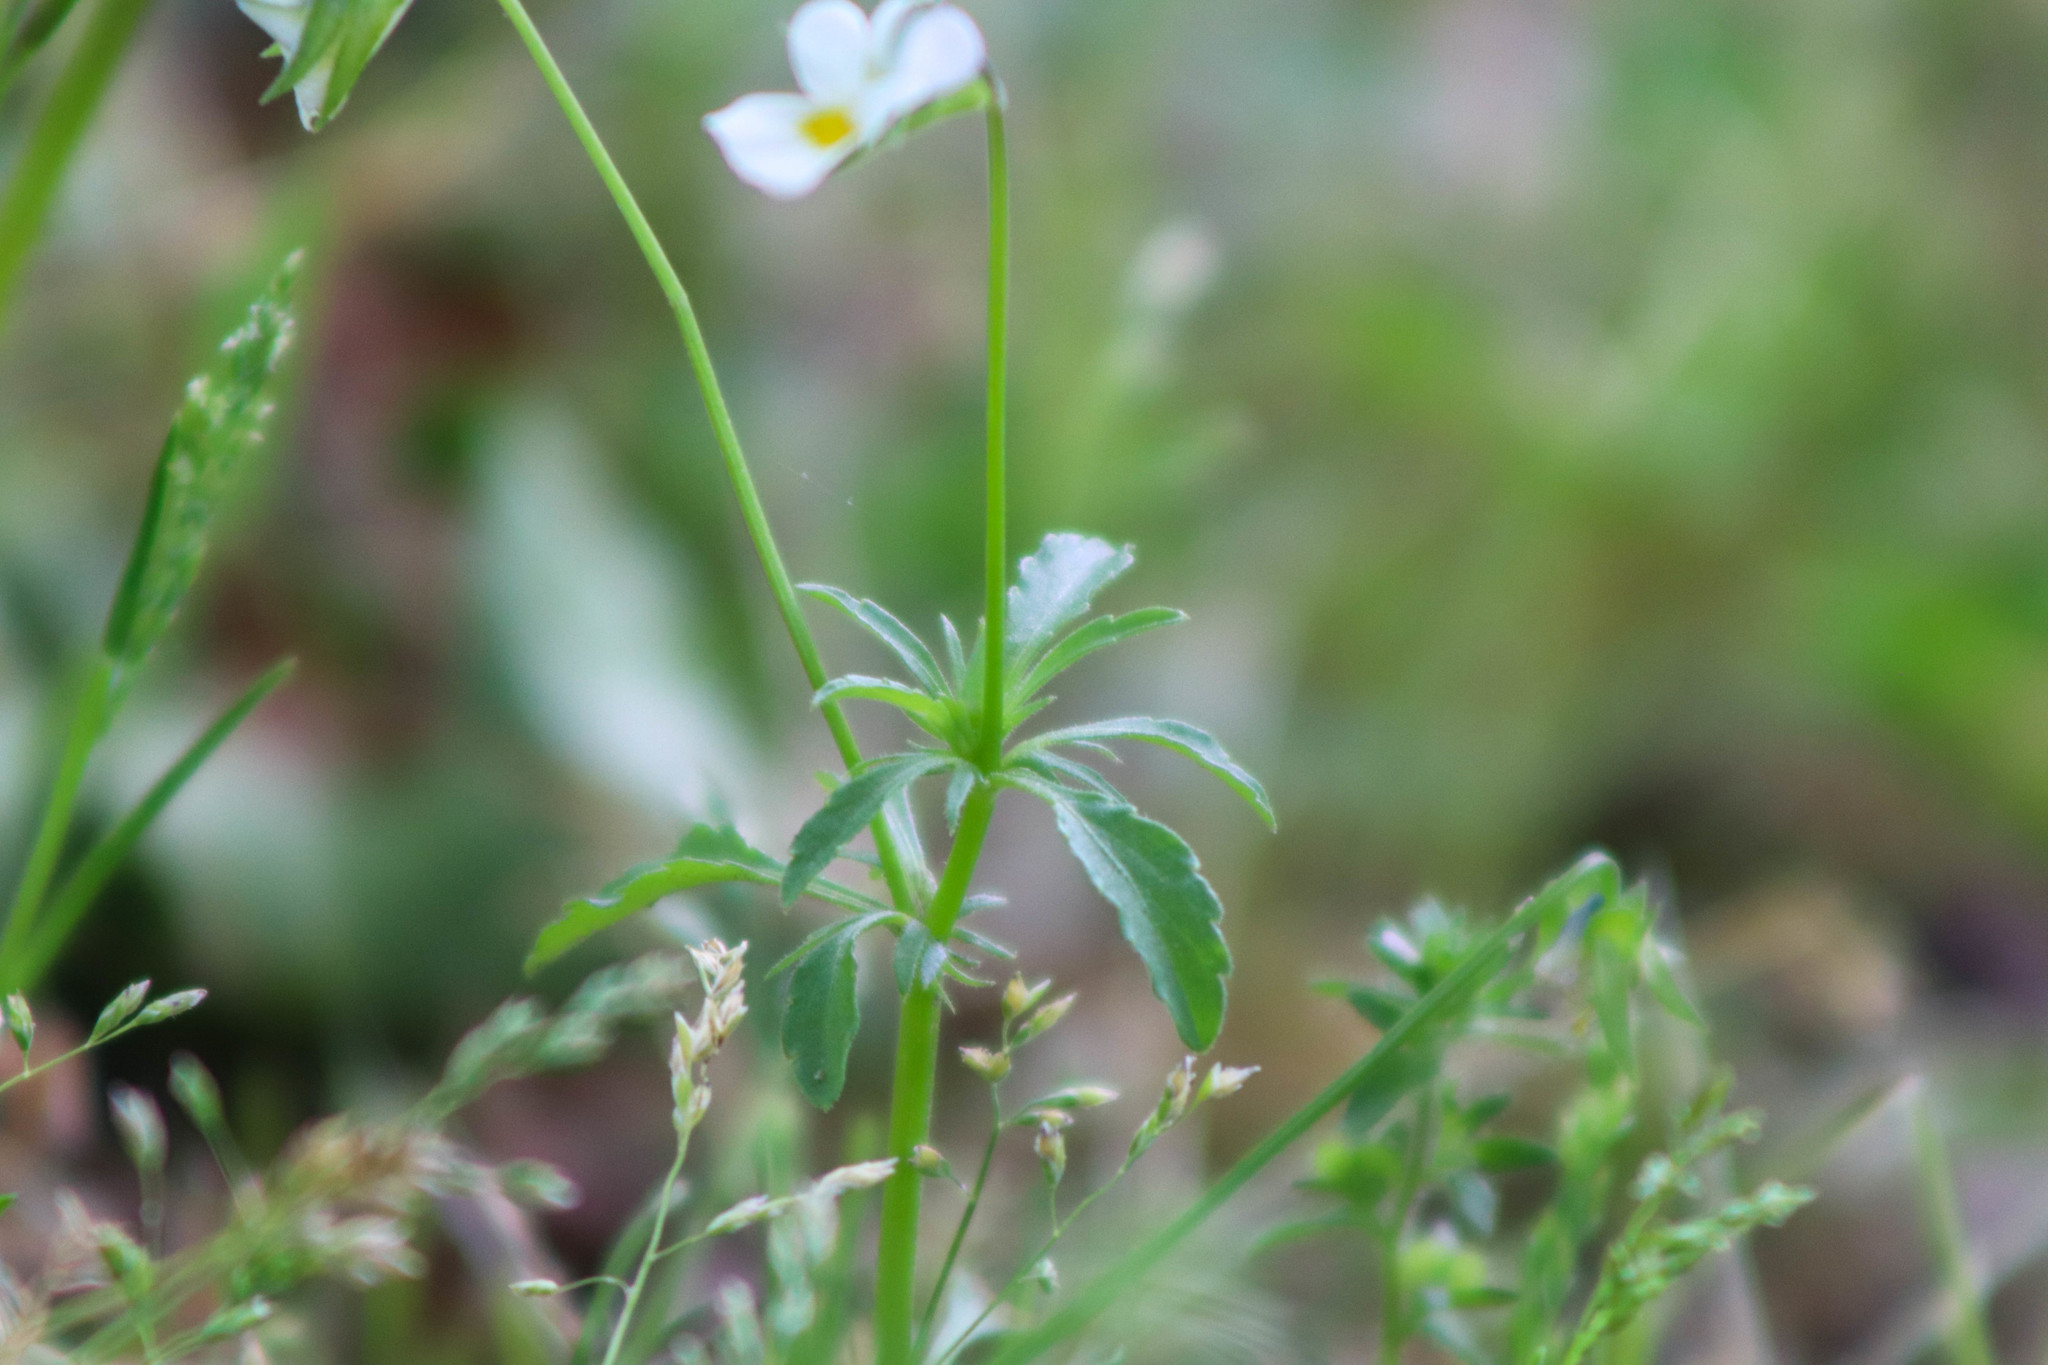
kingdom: Plantae
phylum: Tracheophyta
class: Magnoliopsida
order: Malpighiales
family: Violaceae
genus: Viola
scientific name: Viola arvensis
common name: Field pansy
